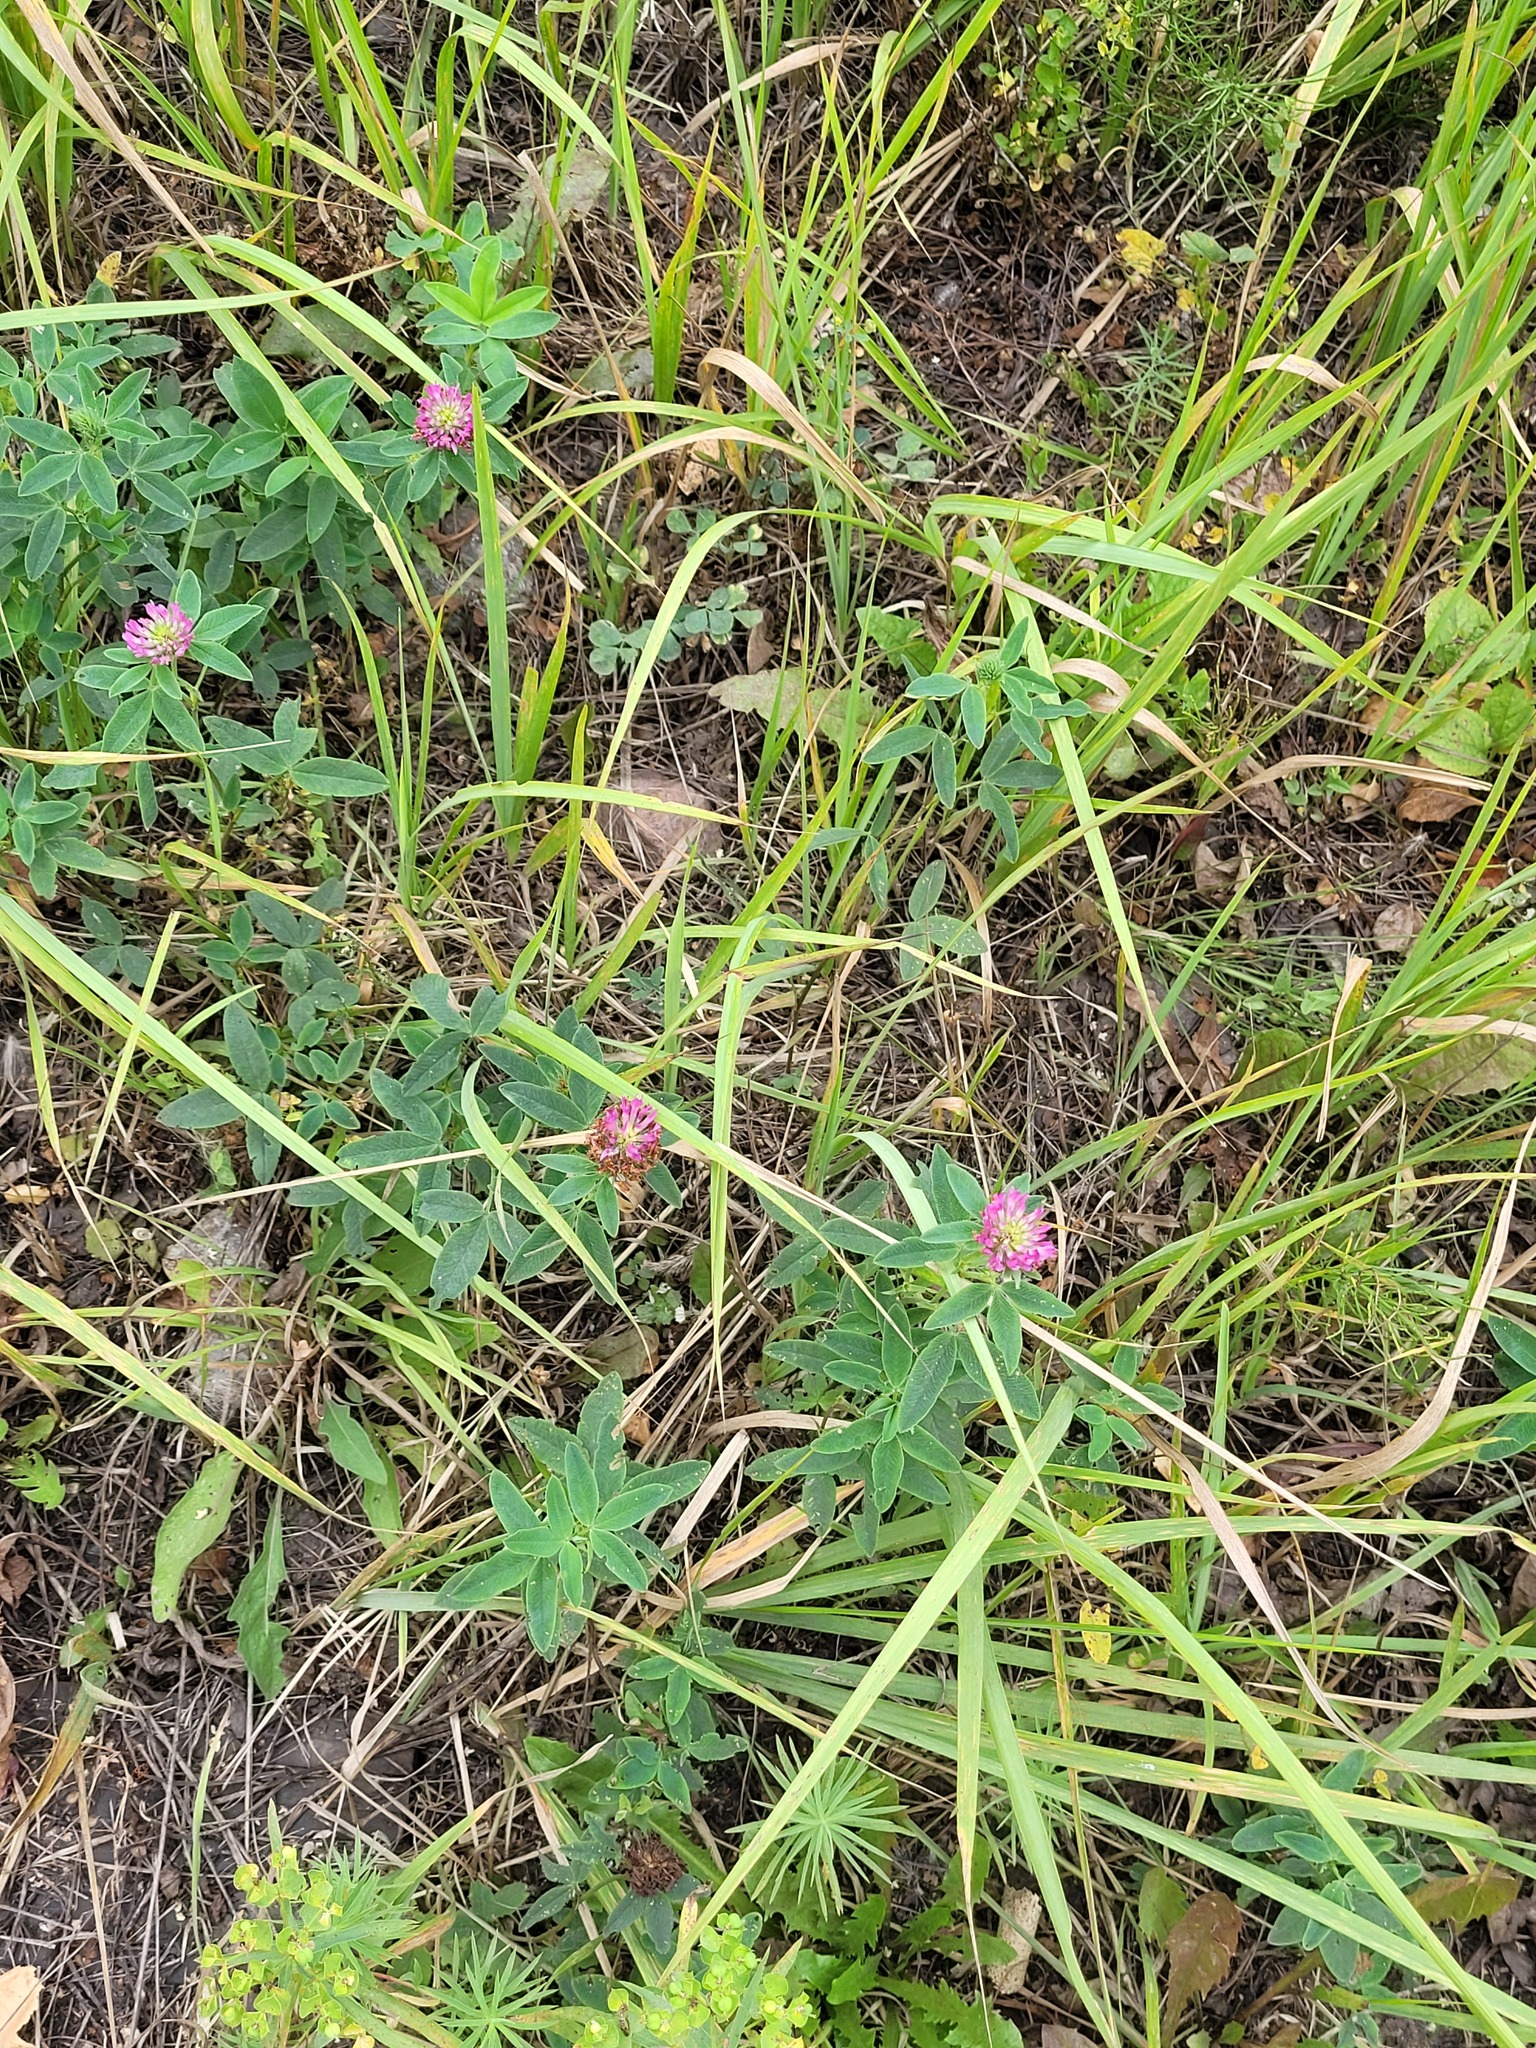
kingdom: Plantae
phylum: Tracheophyta
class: Magnoliopsida
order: Fabales
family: Fabaceae
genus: Trifolium
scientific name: Trifolium medium
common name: Zigzag clover
